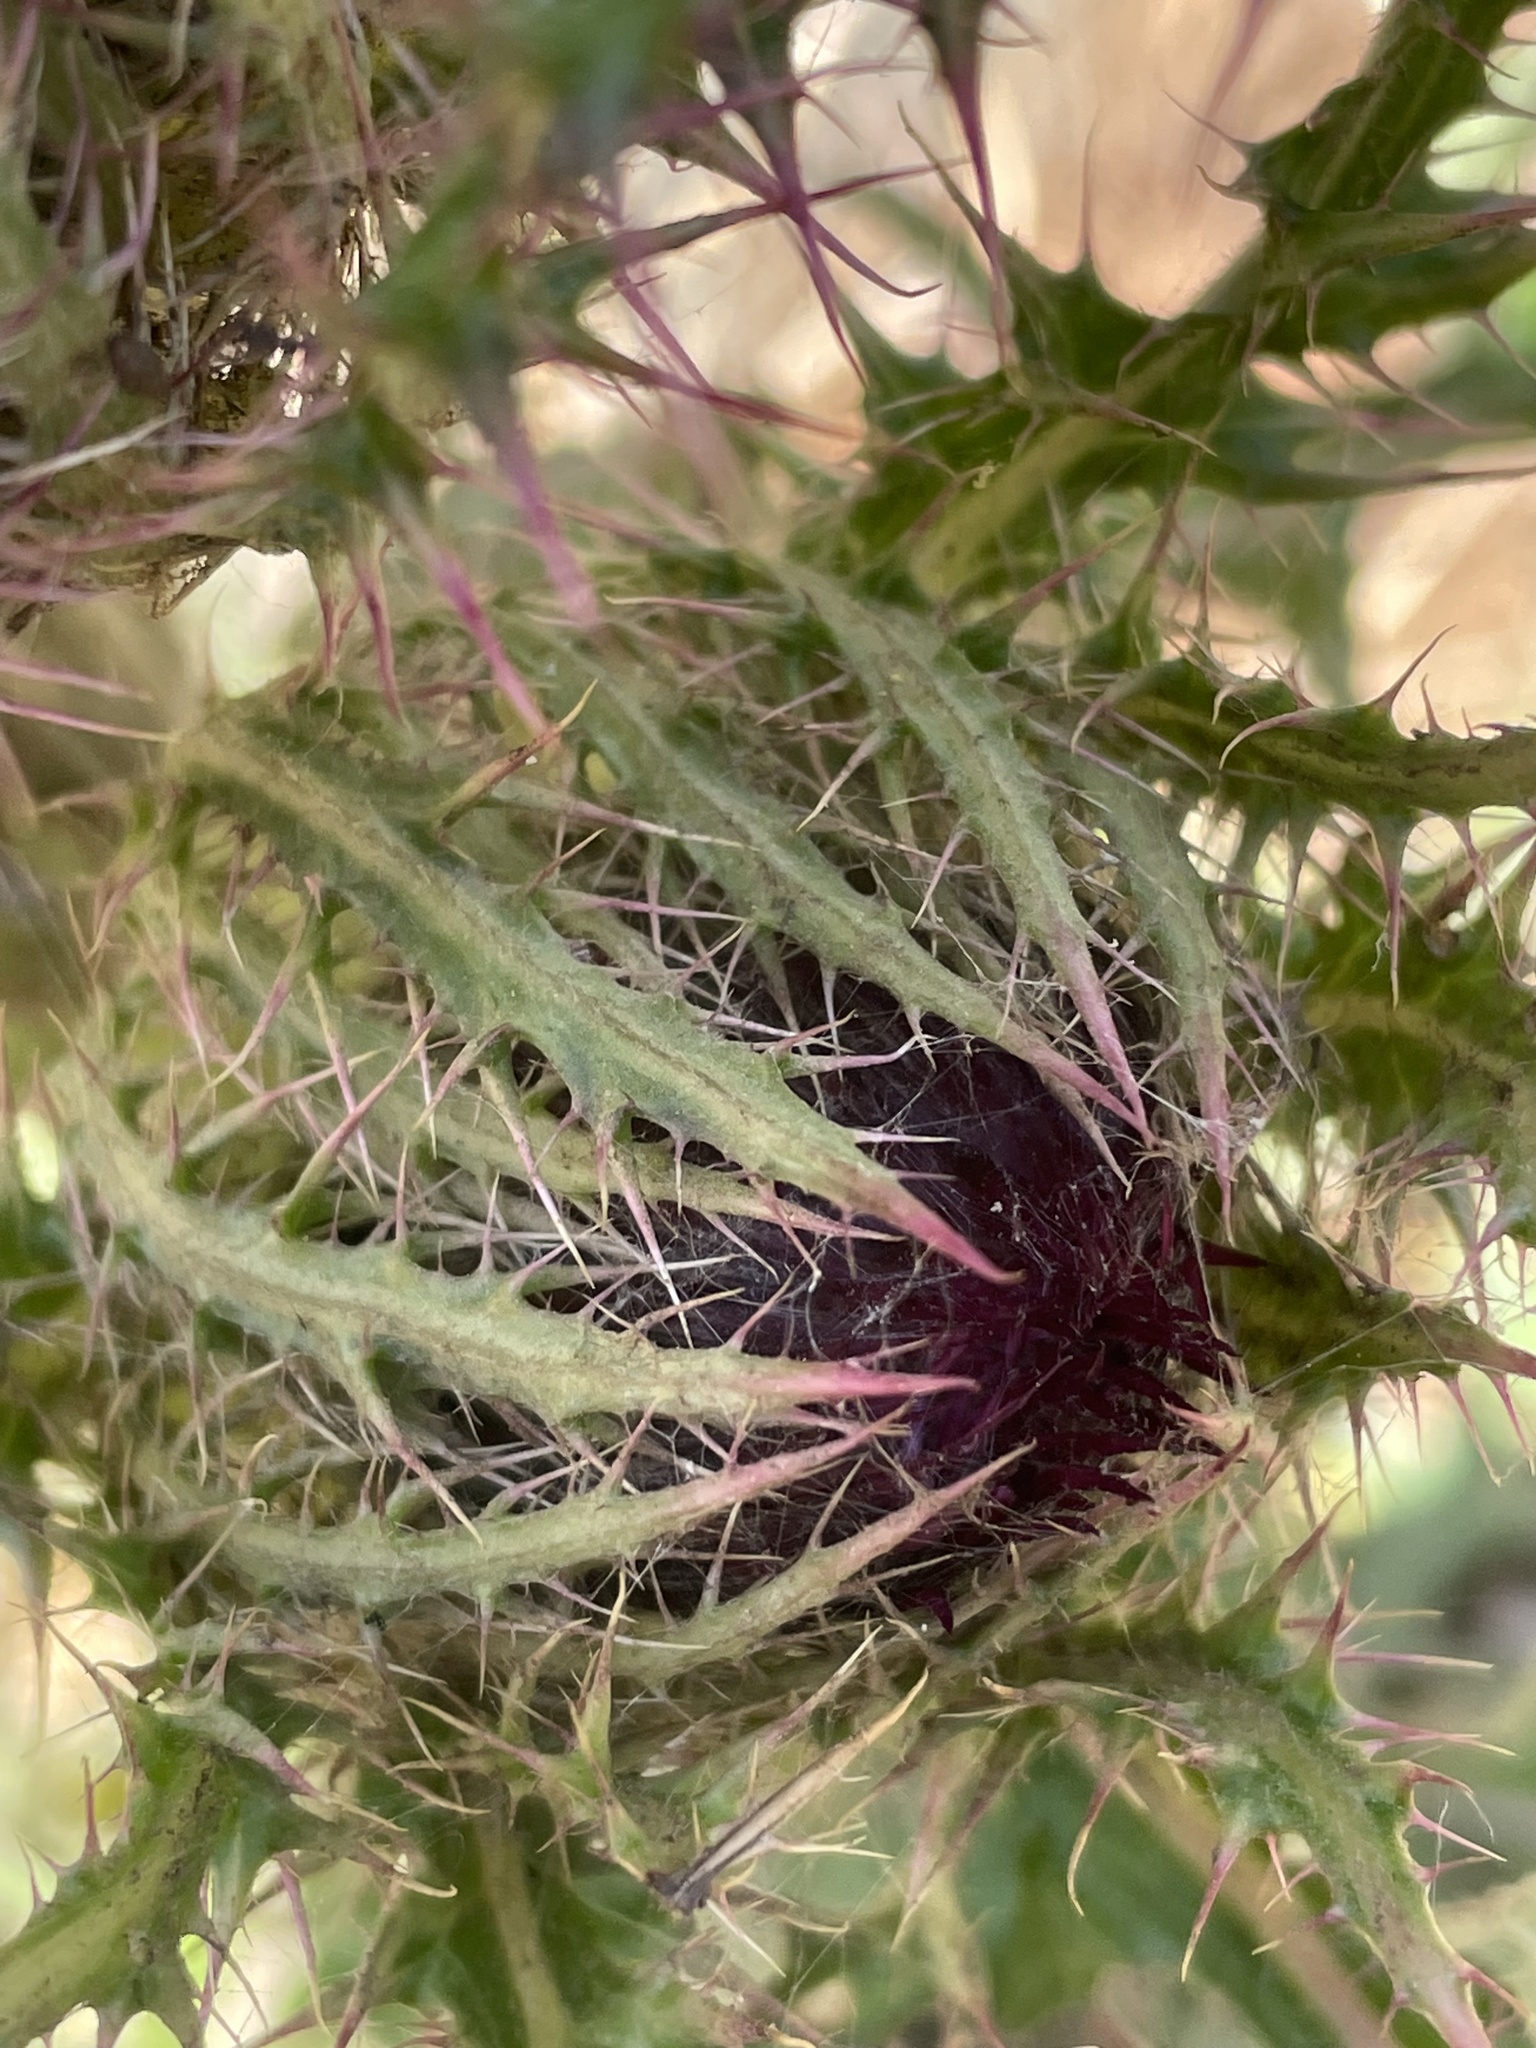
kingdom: Plantae
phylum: Tracheophyta
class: Magnoliopsida
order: Asterales
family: Asteraceae
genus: Cirsium
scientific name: Cirsium horridulum
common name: Bristly thistle
